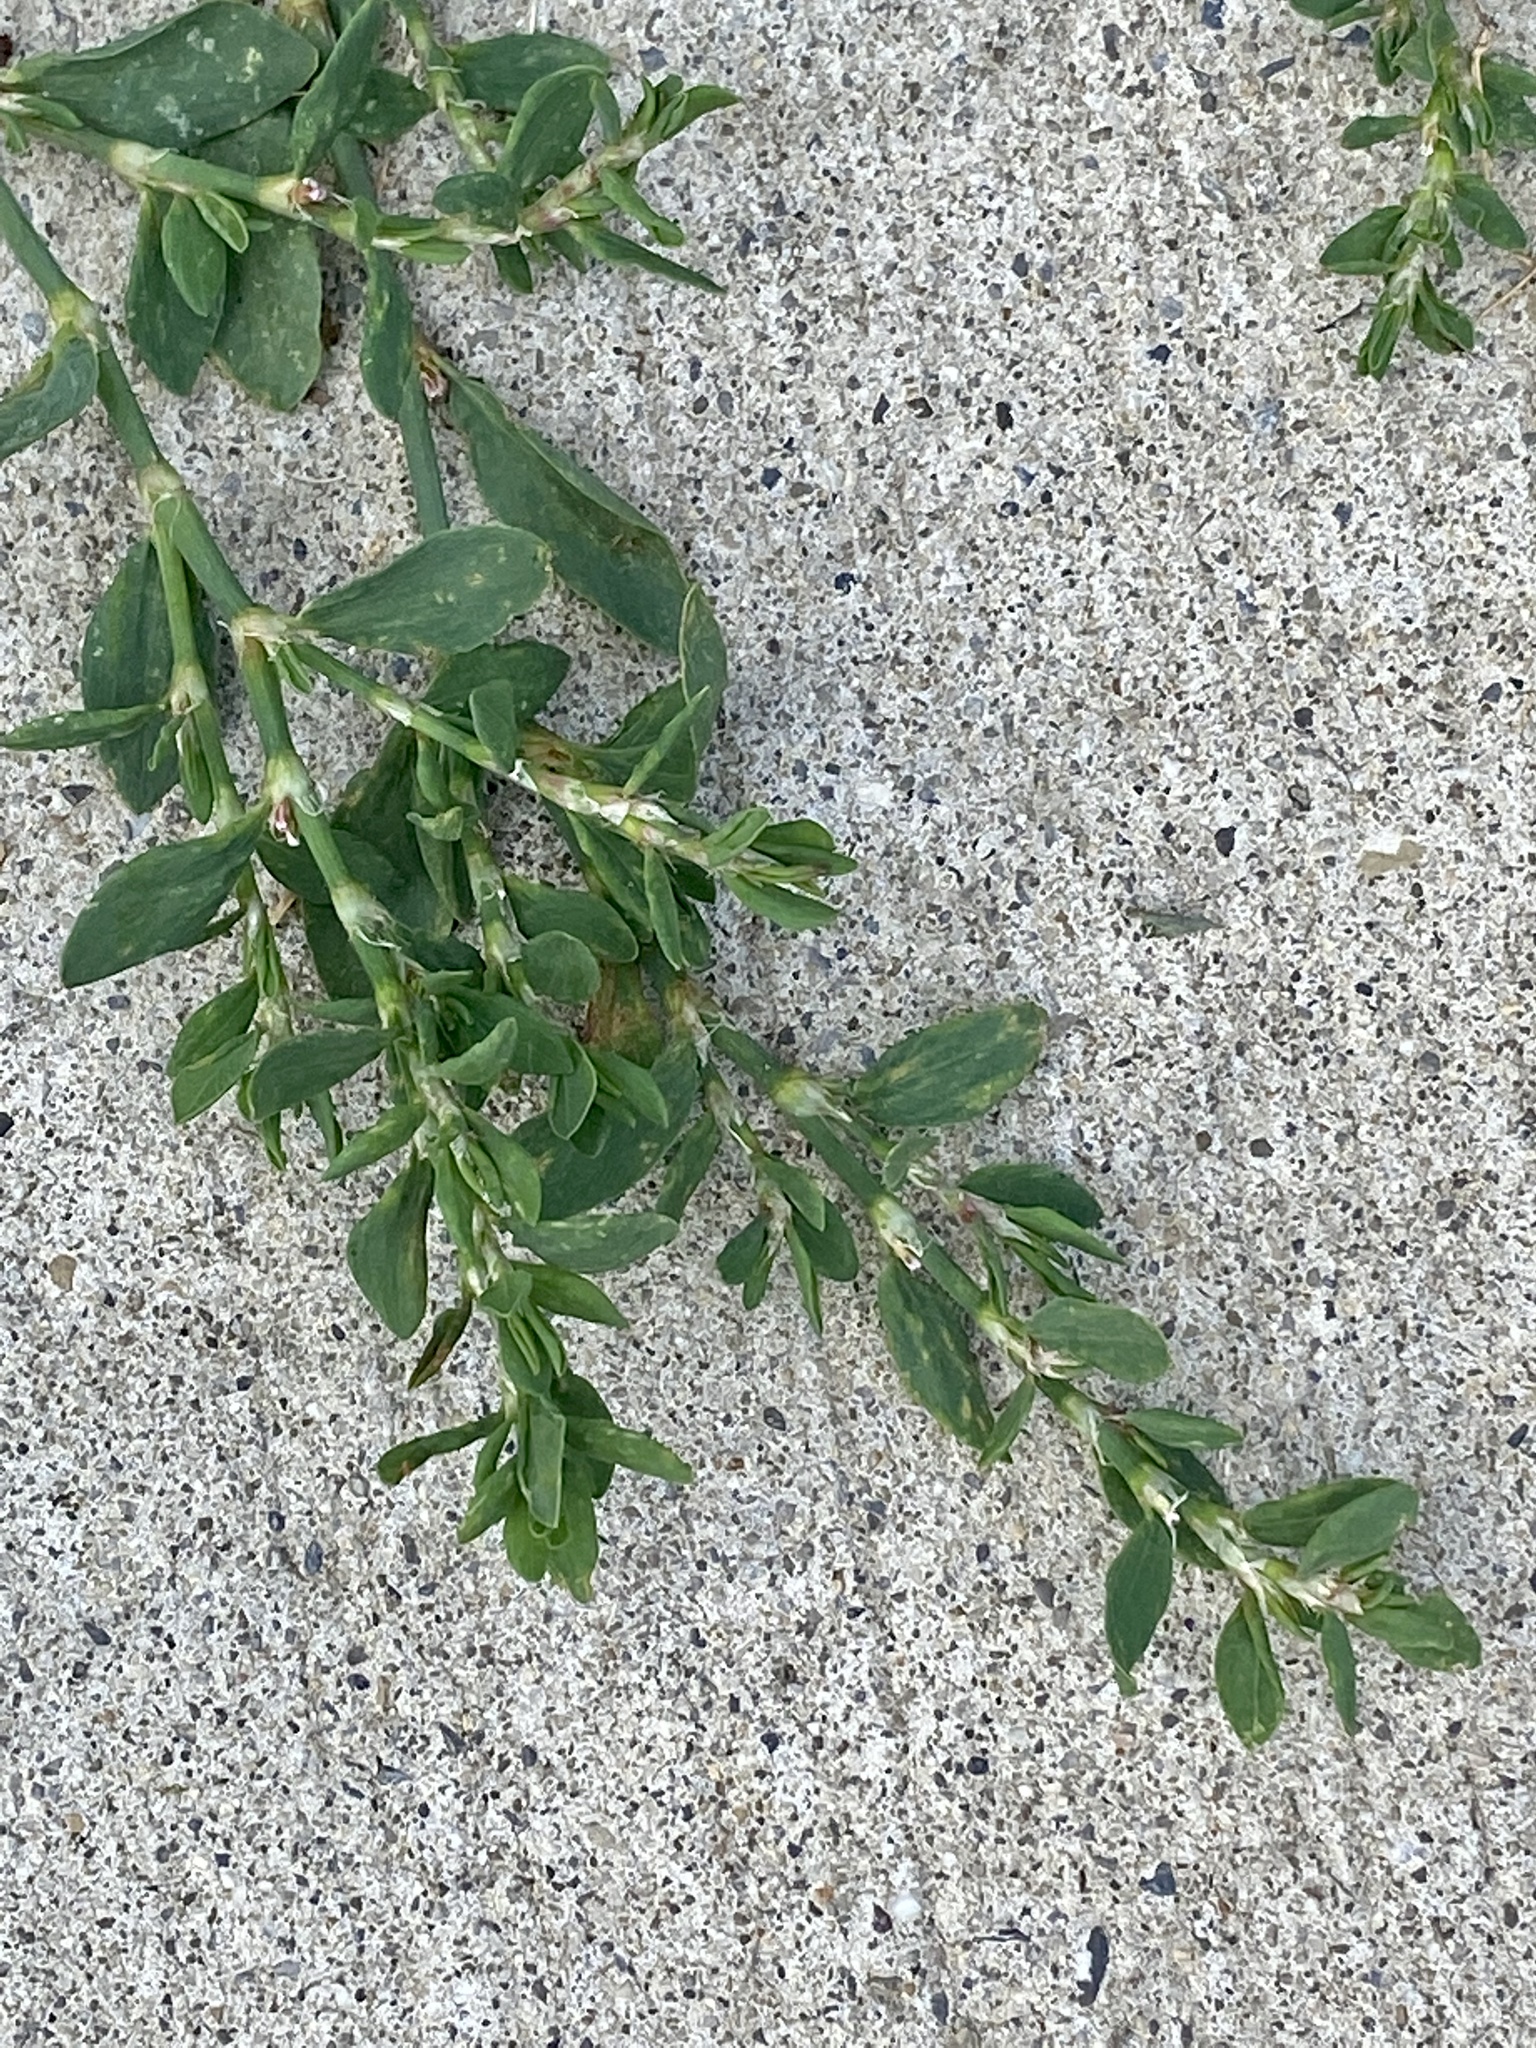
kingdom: Plantae
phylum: Tracheophyta
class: Magnoliopsida
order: Caryophyllales
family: Polygonaceae
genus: Polygonum
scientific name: Polygonum aviculare
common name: Prostrate knotweed
